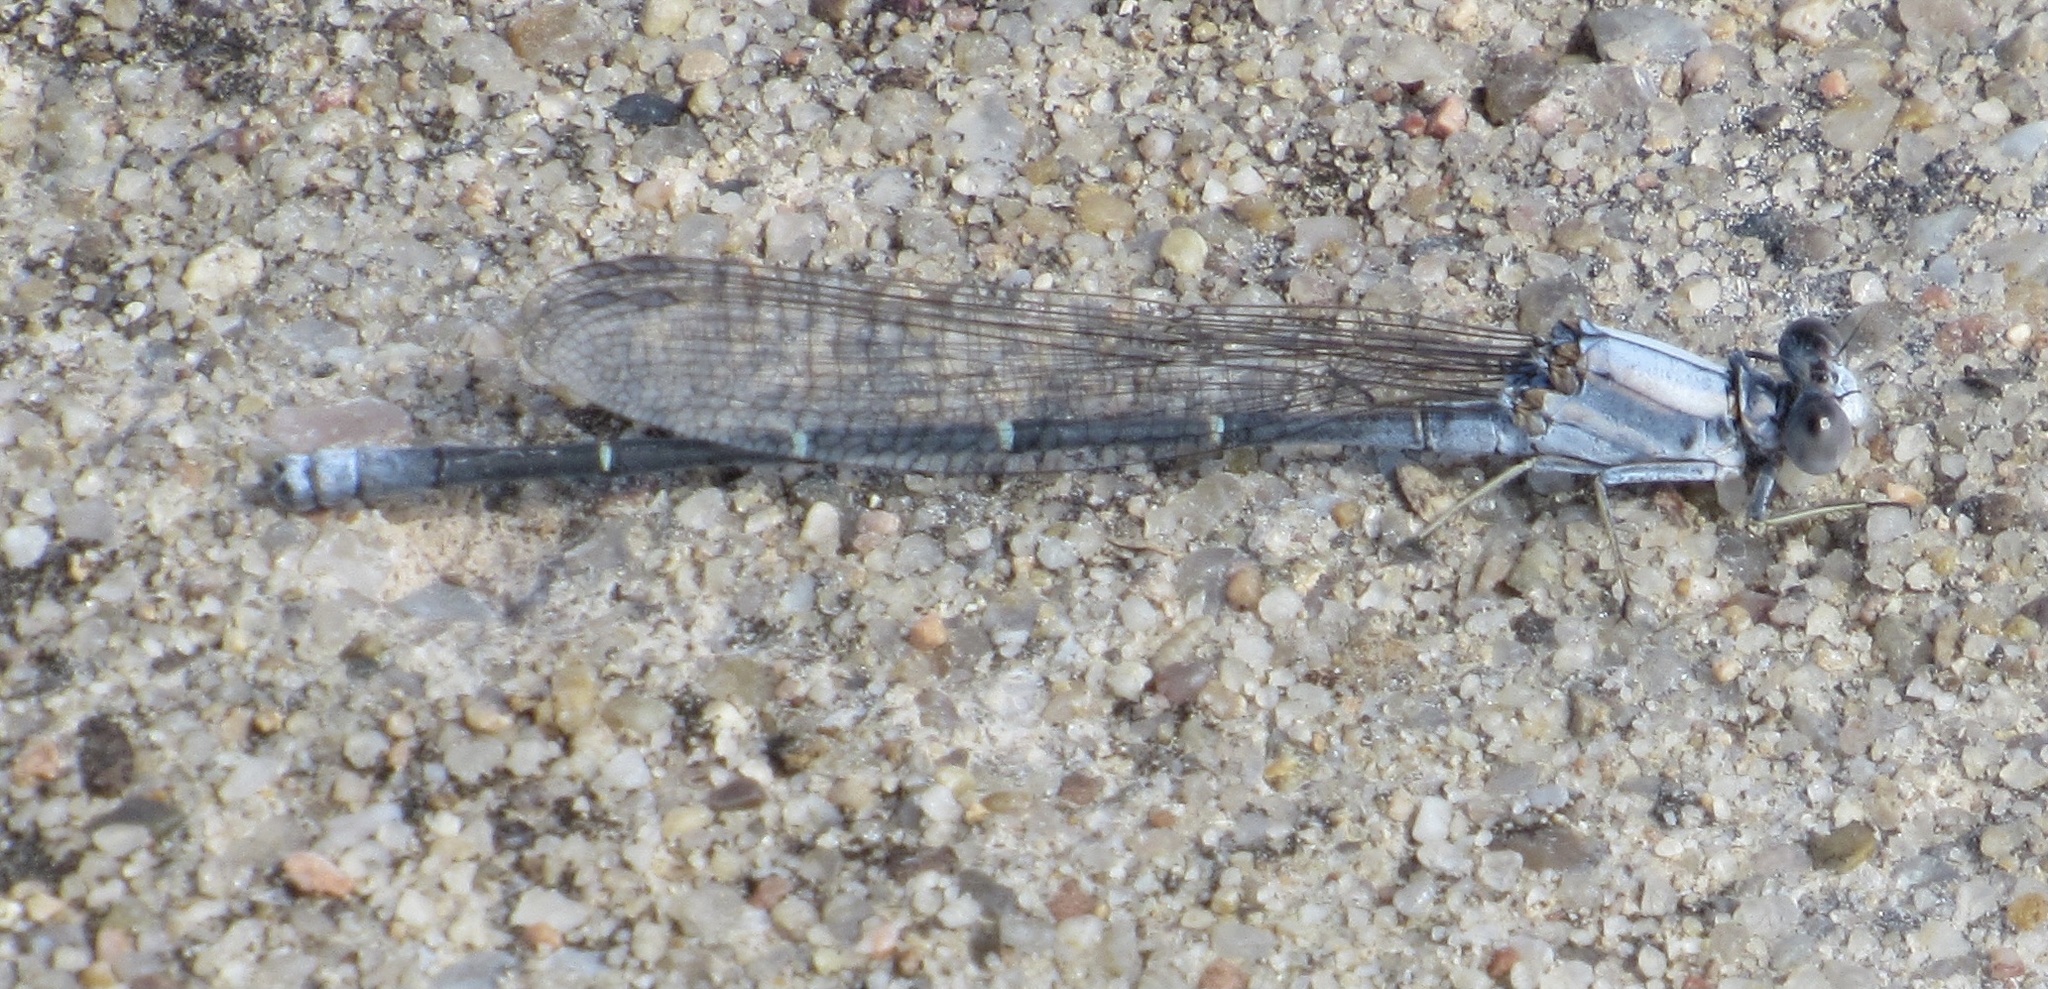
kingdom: Animalia
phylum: Arthropoda
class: Insecta
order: Odonata
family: Coenagrionidae
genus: Argia
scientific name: Argia moesta
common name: Powdered dancer
